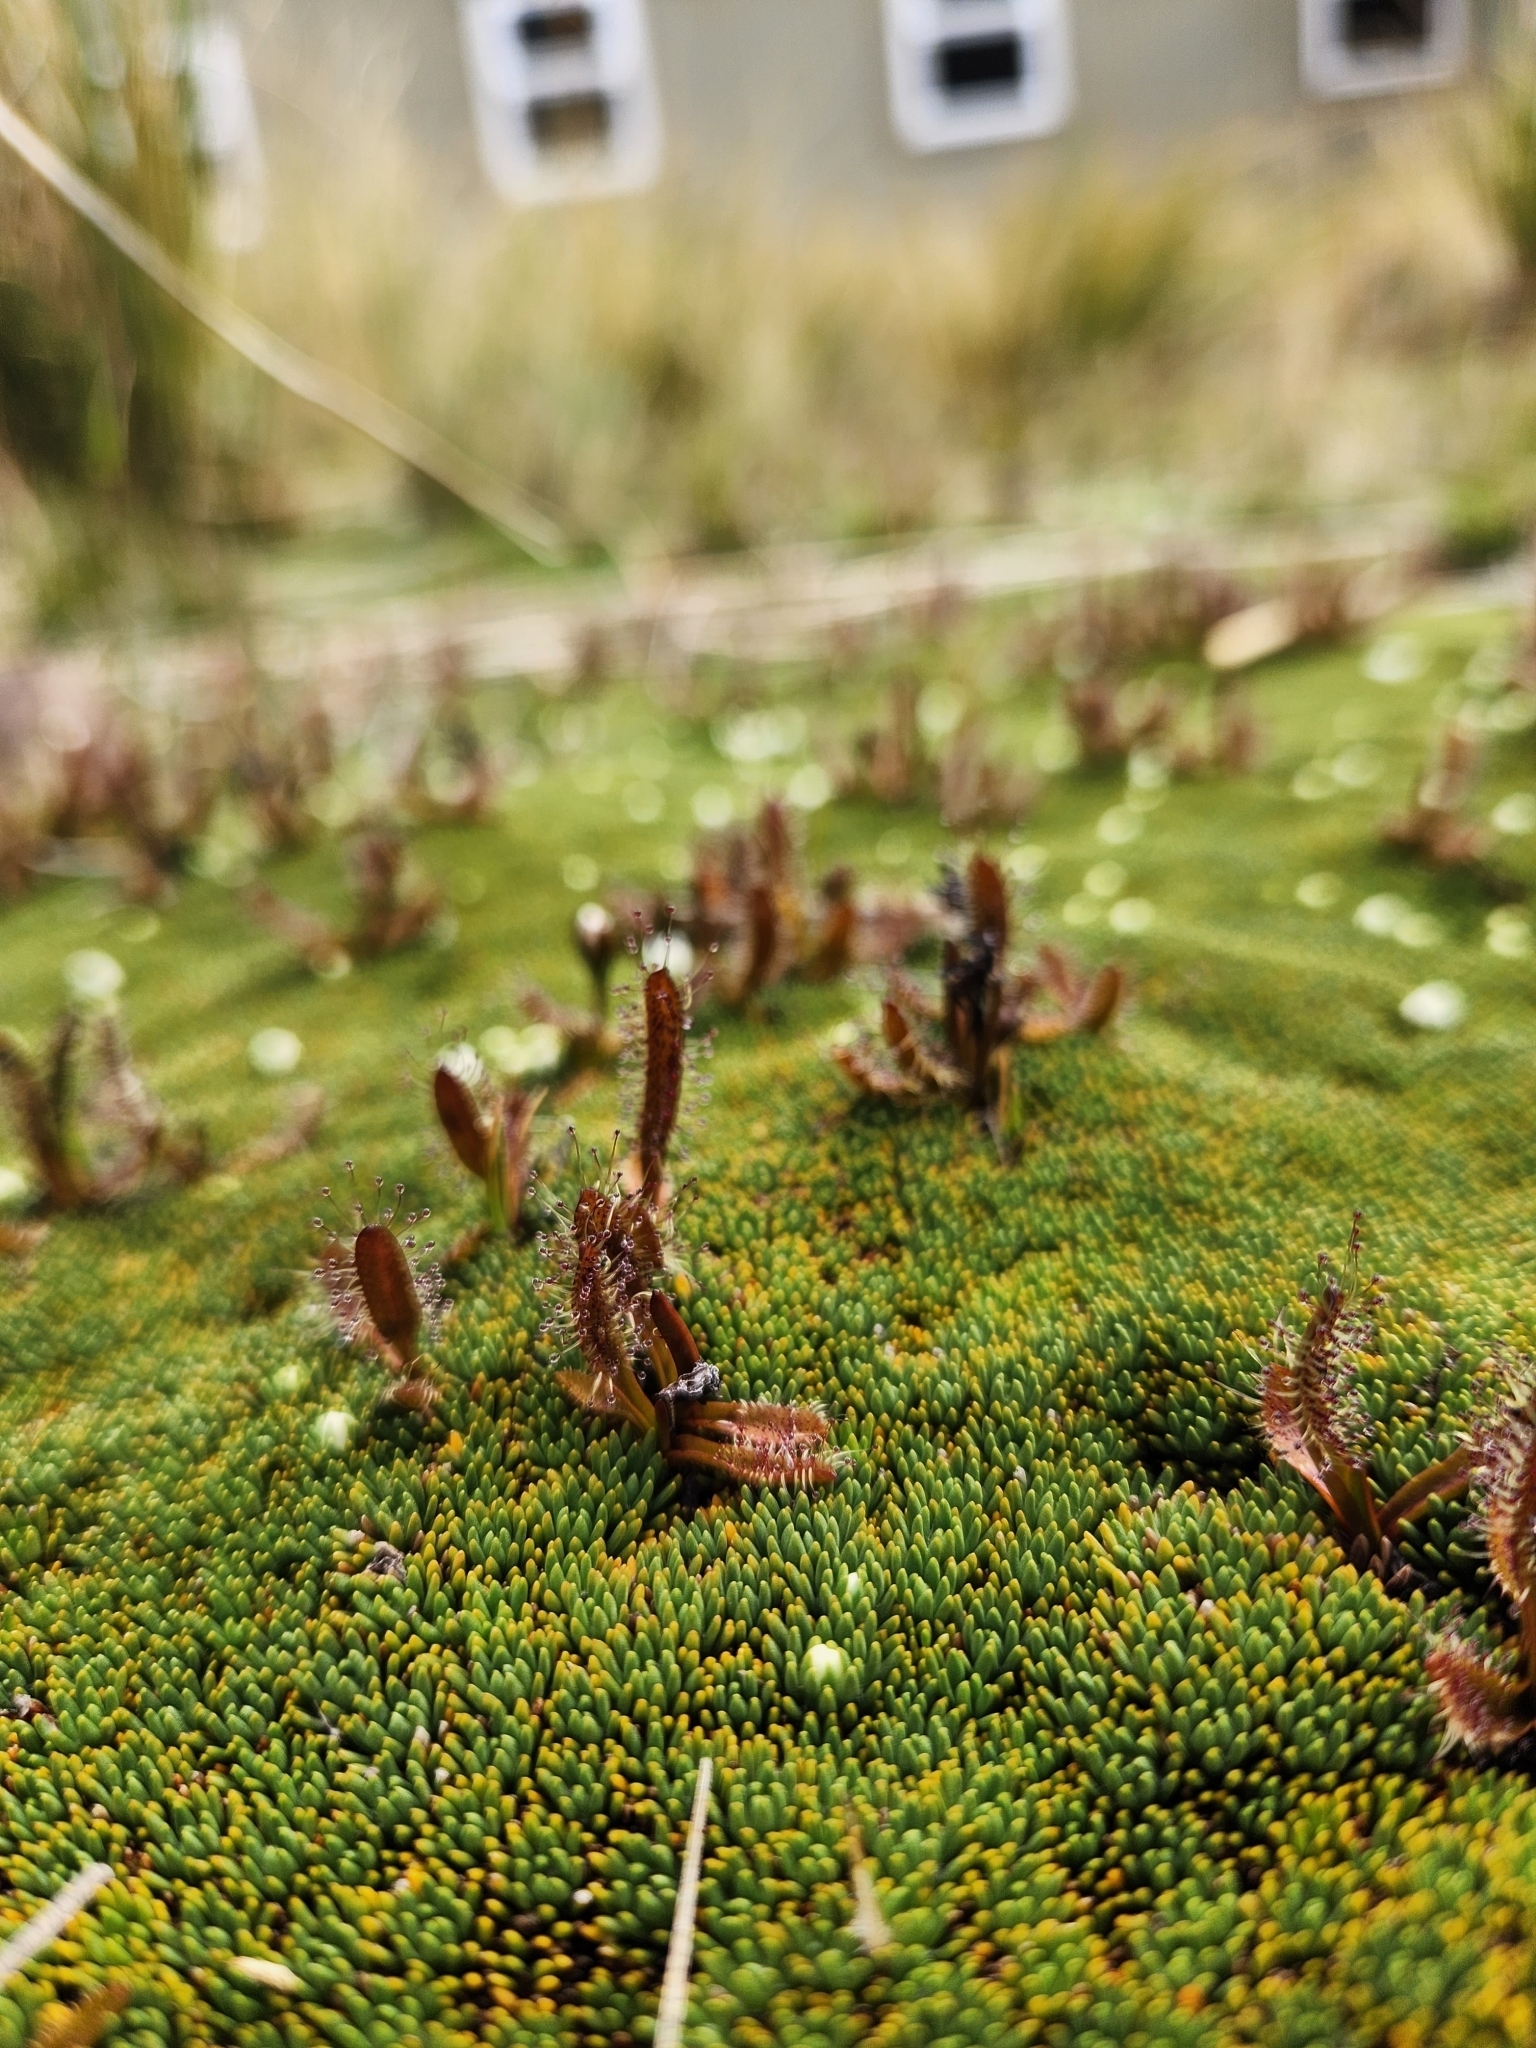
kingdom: Plantae
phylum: Tracheophyta
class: Magnoliopsida
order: Caryophyllales
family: Droseraceae
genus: Drosera
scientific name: Drosera arcturi
